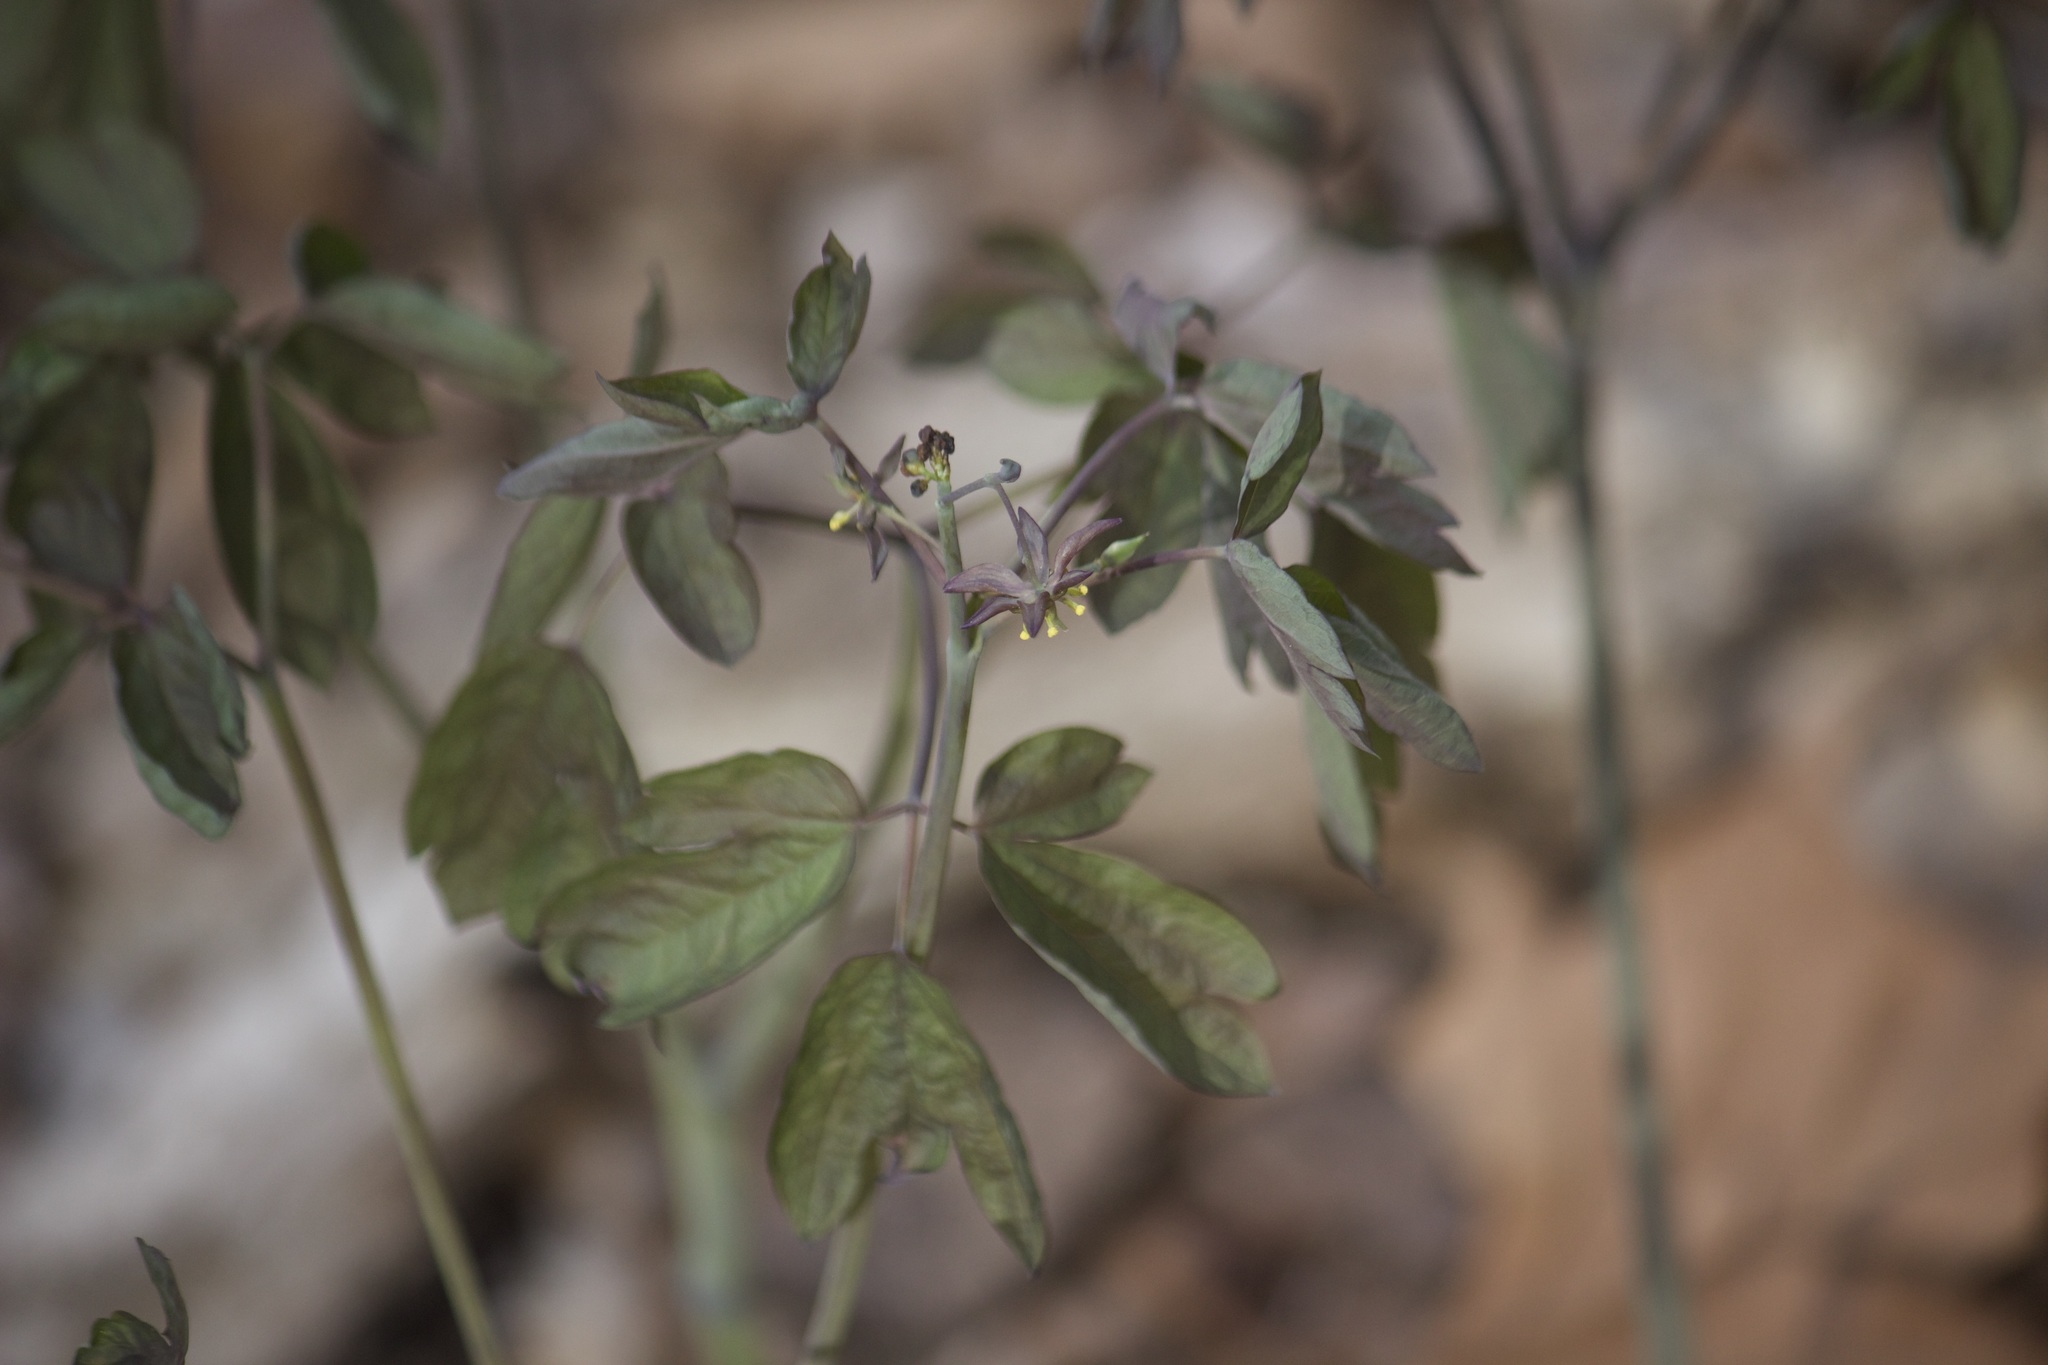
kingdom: Plantae
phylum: Tracheophyta
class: Magnoliopsida
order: Ranunculales
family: Berberidaceae
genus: Caulophyllum
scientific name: Caulophyllum giganteum
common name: Blue cohosh
